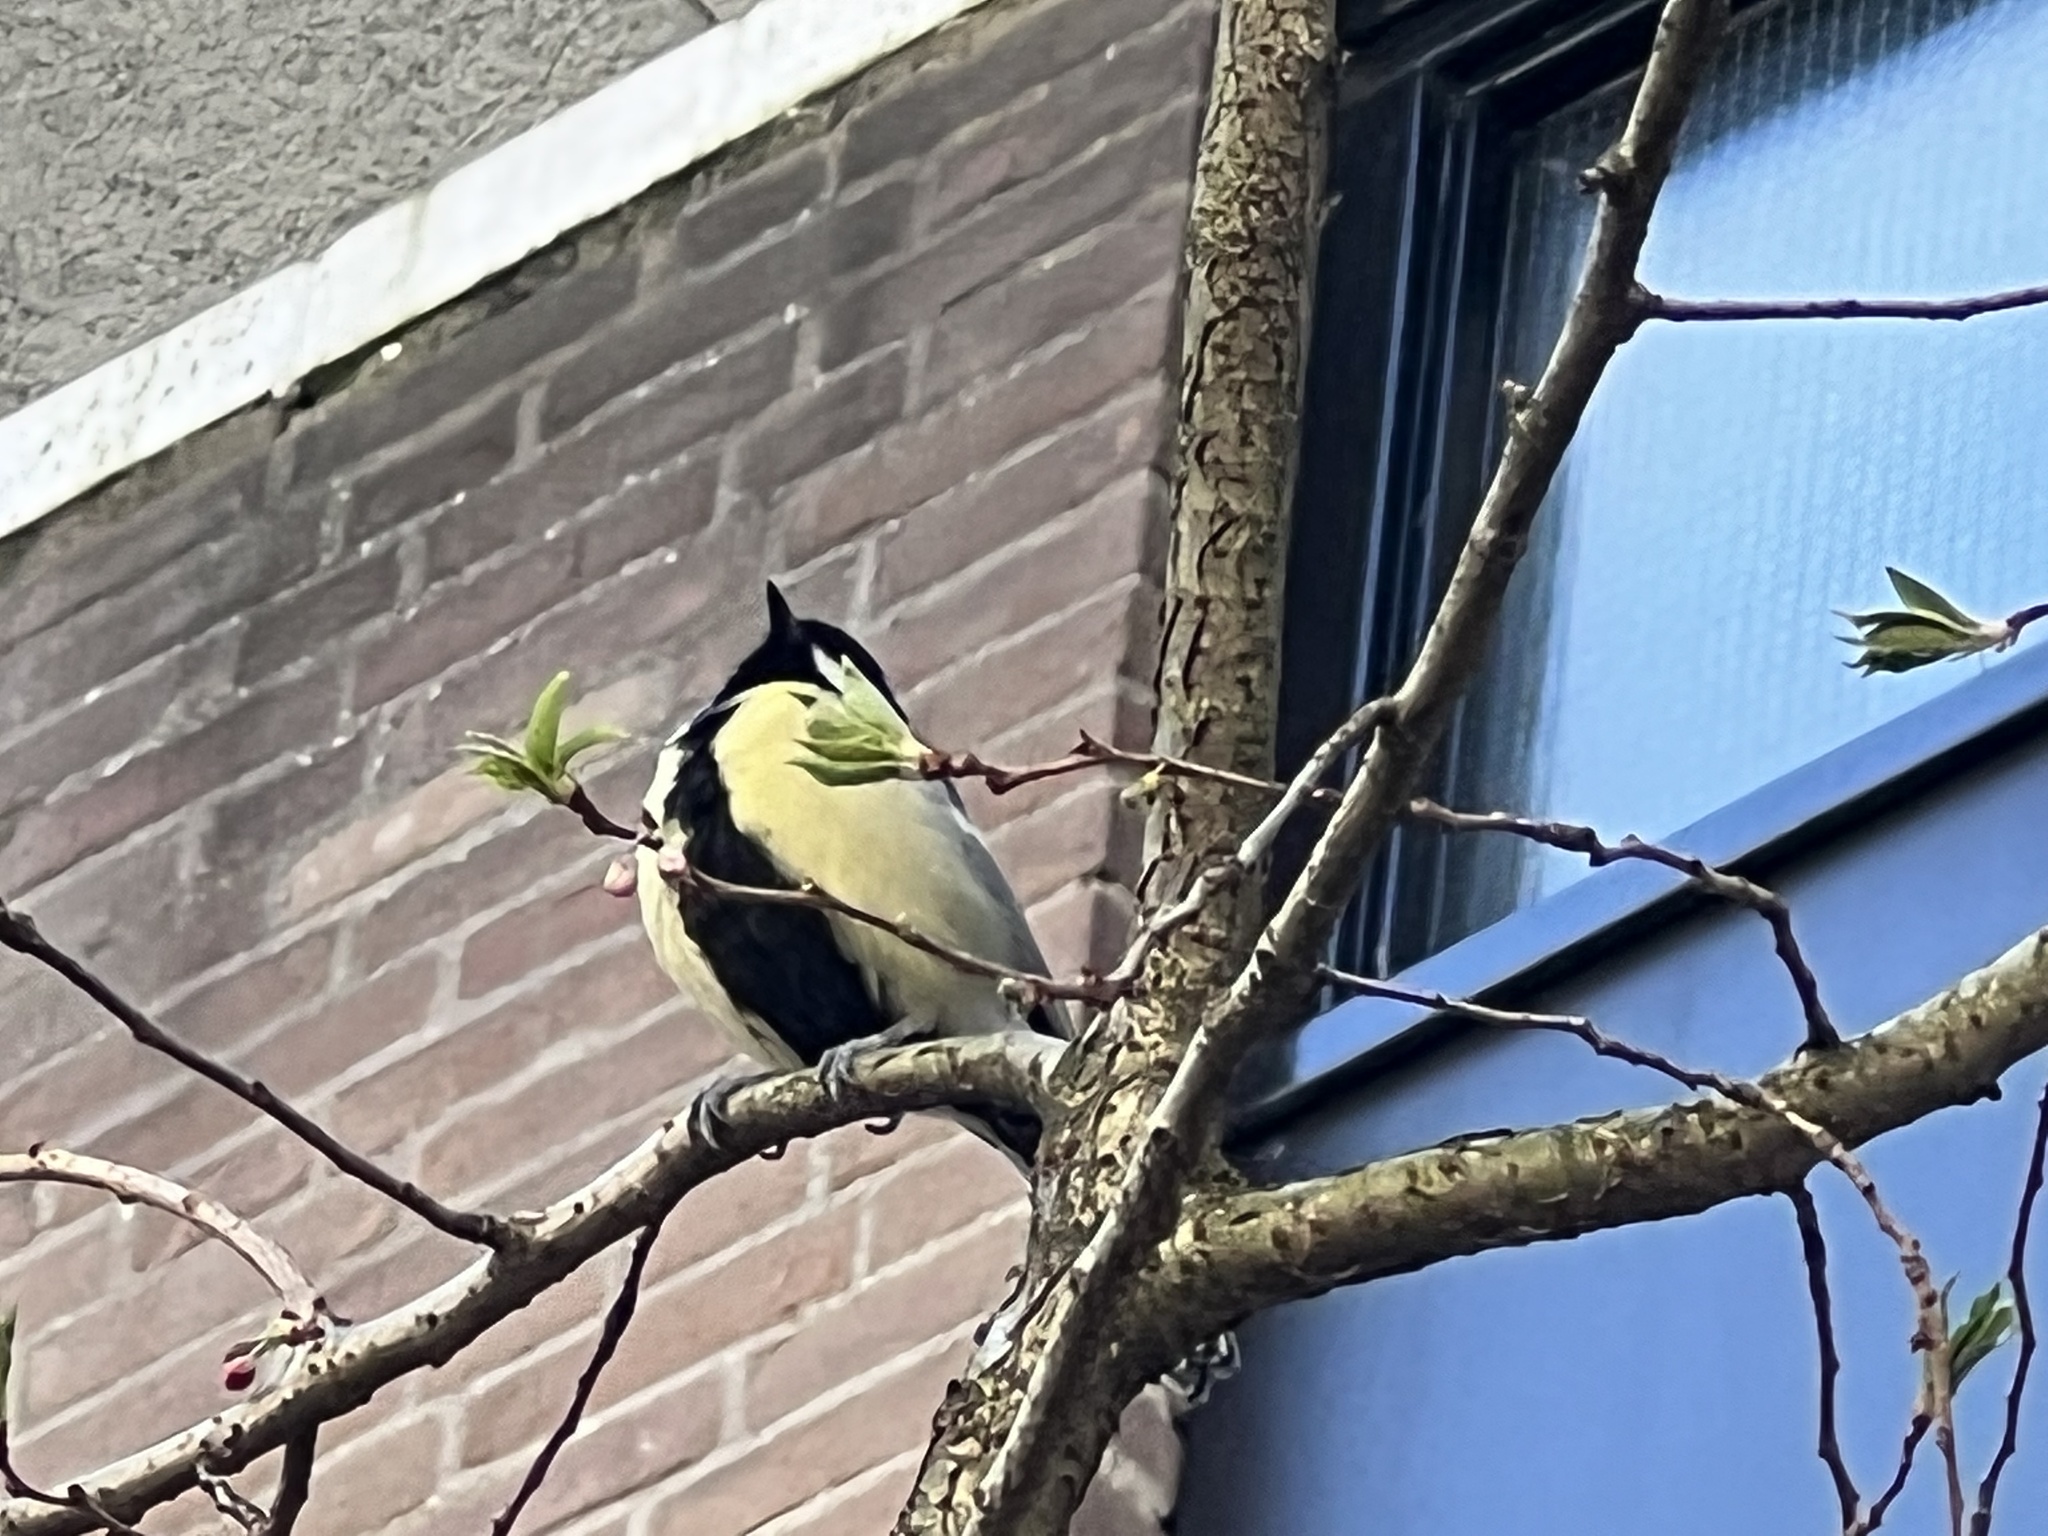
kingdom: Animalia
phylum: Chordata
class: Aves
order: Passeriformes
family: Paridae
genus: Parus
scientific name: Parus major
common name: Great tit
